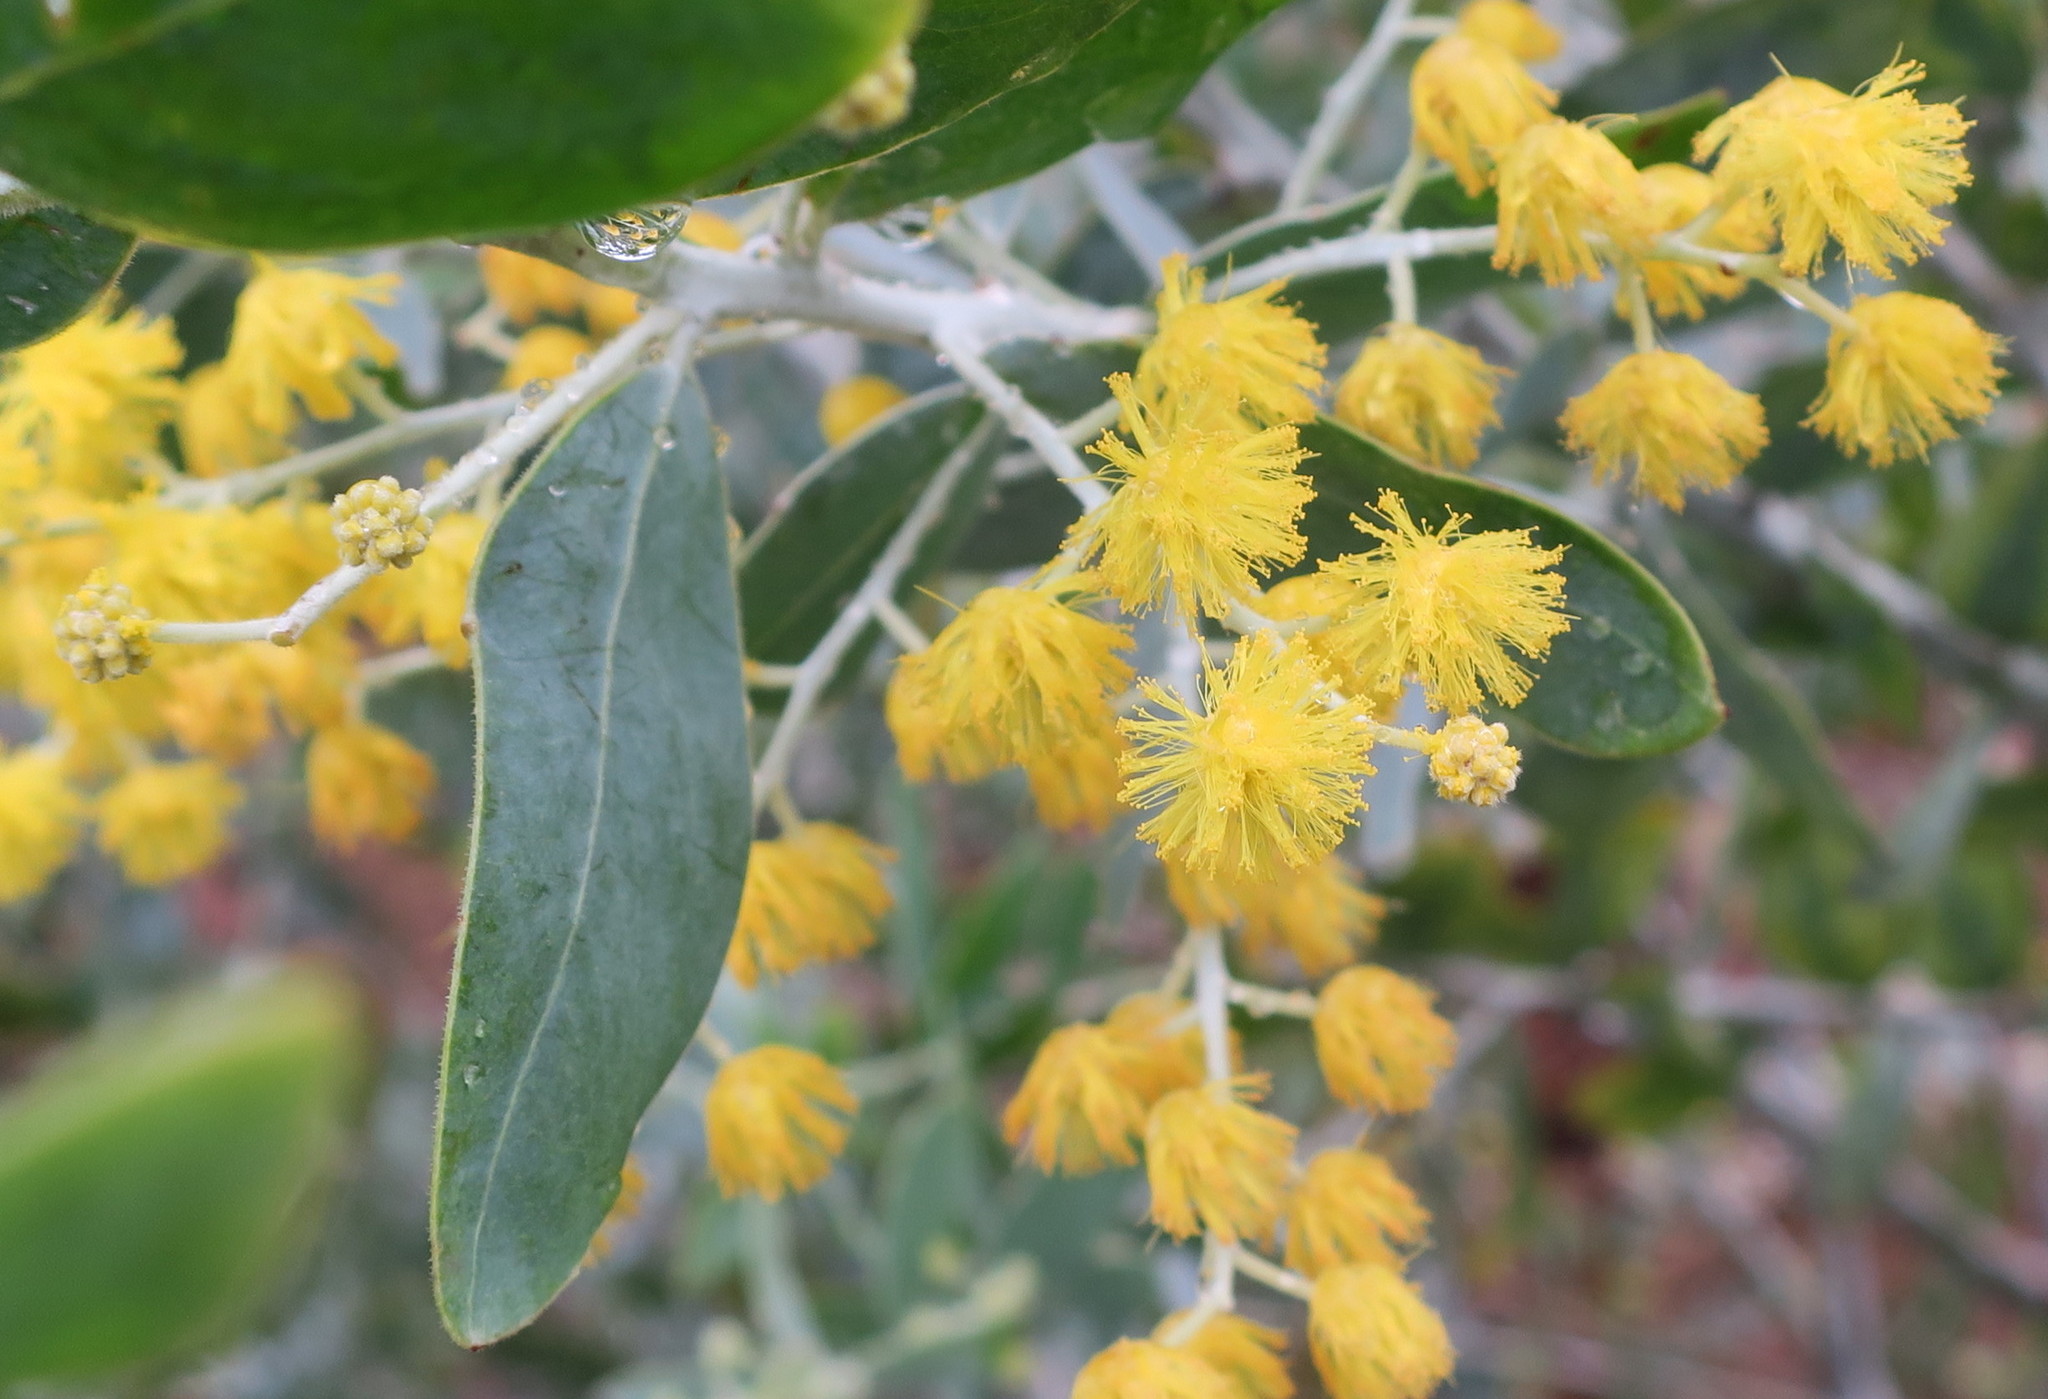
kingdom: Plantae
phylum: Tracheophyta
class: Magnoliopsida
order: Fabales
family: Fabaceae
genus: Acacia
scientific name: Acacia podalyriifolia
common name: Pearl wattle
